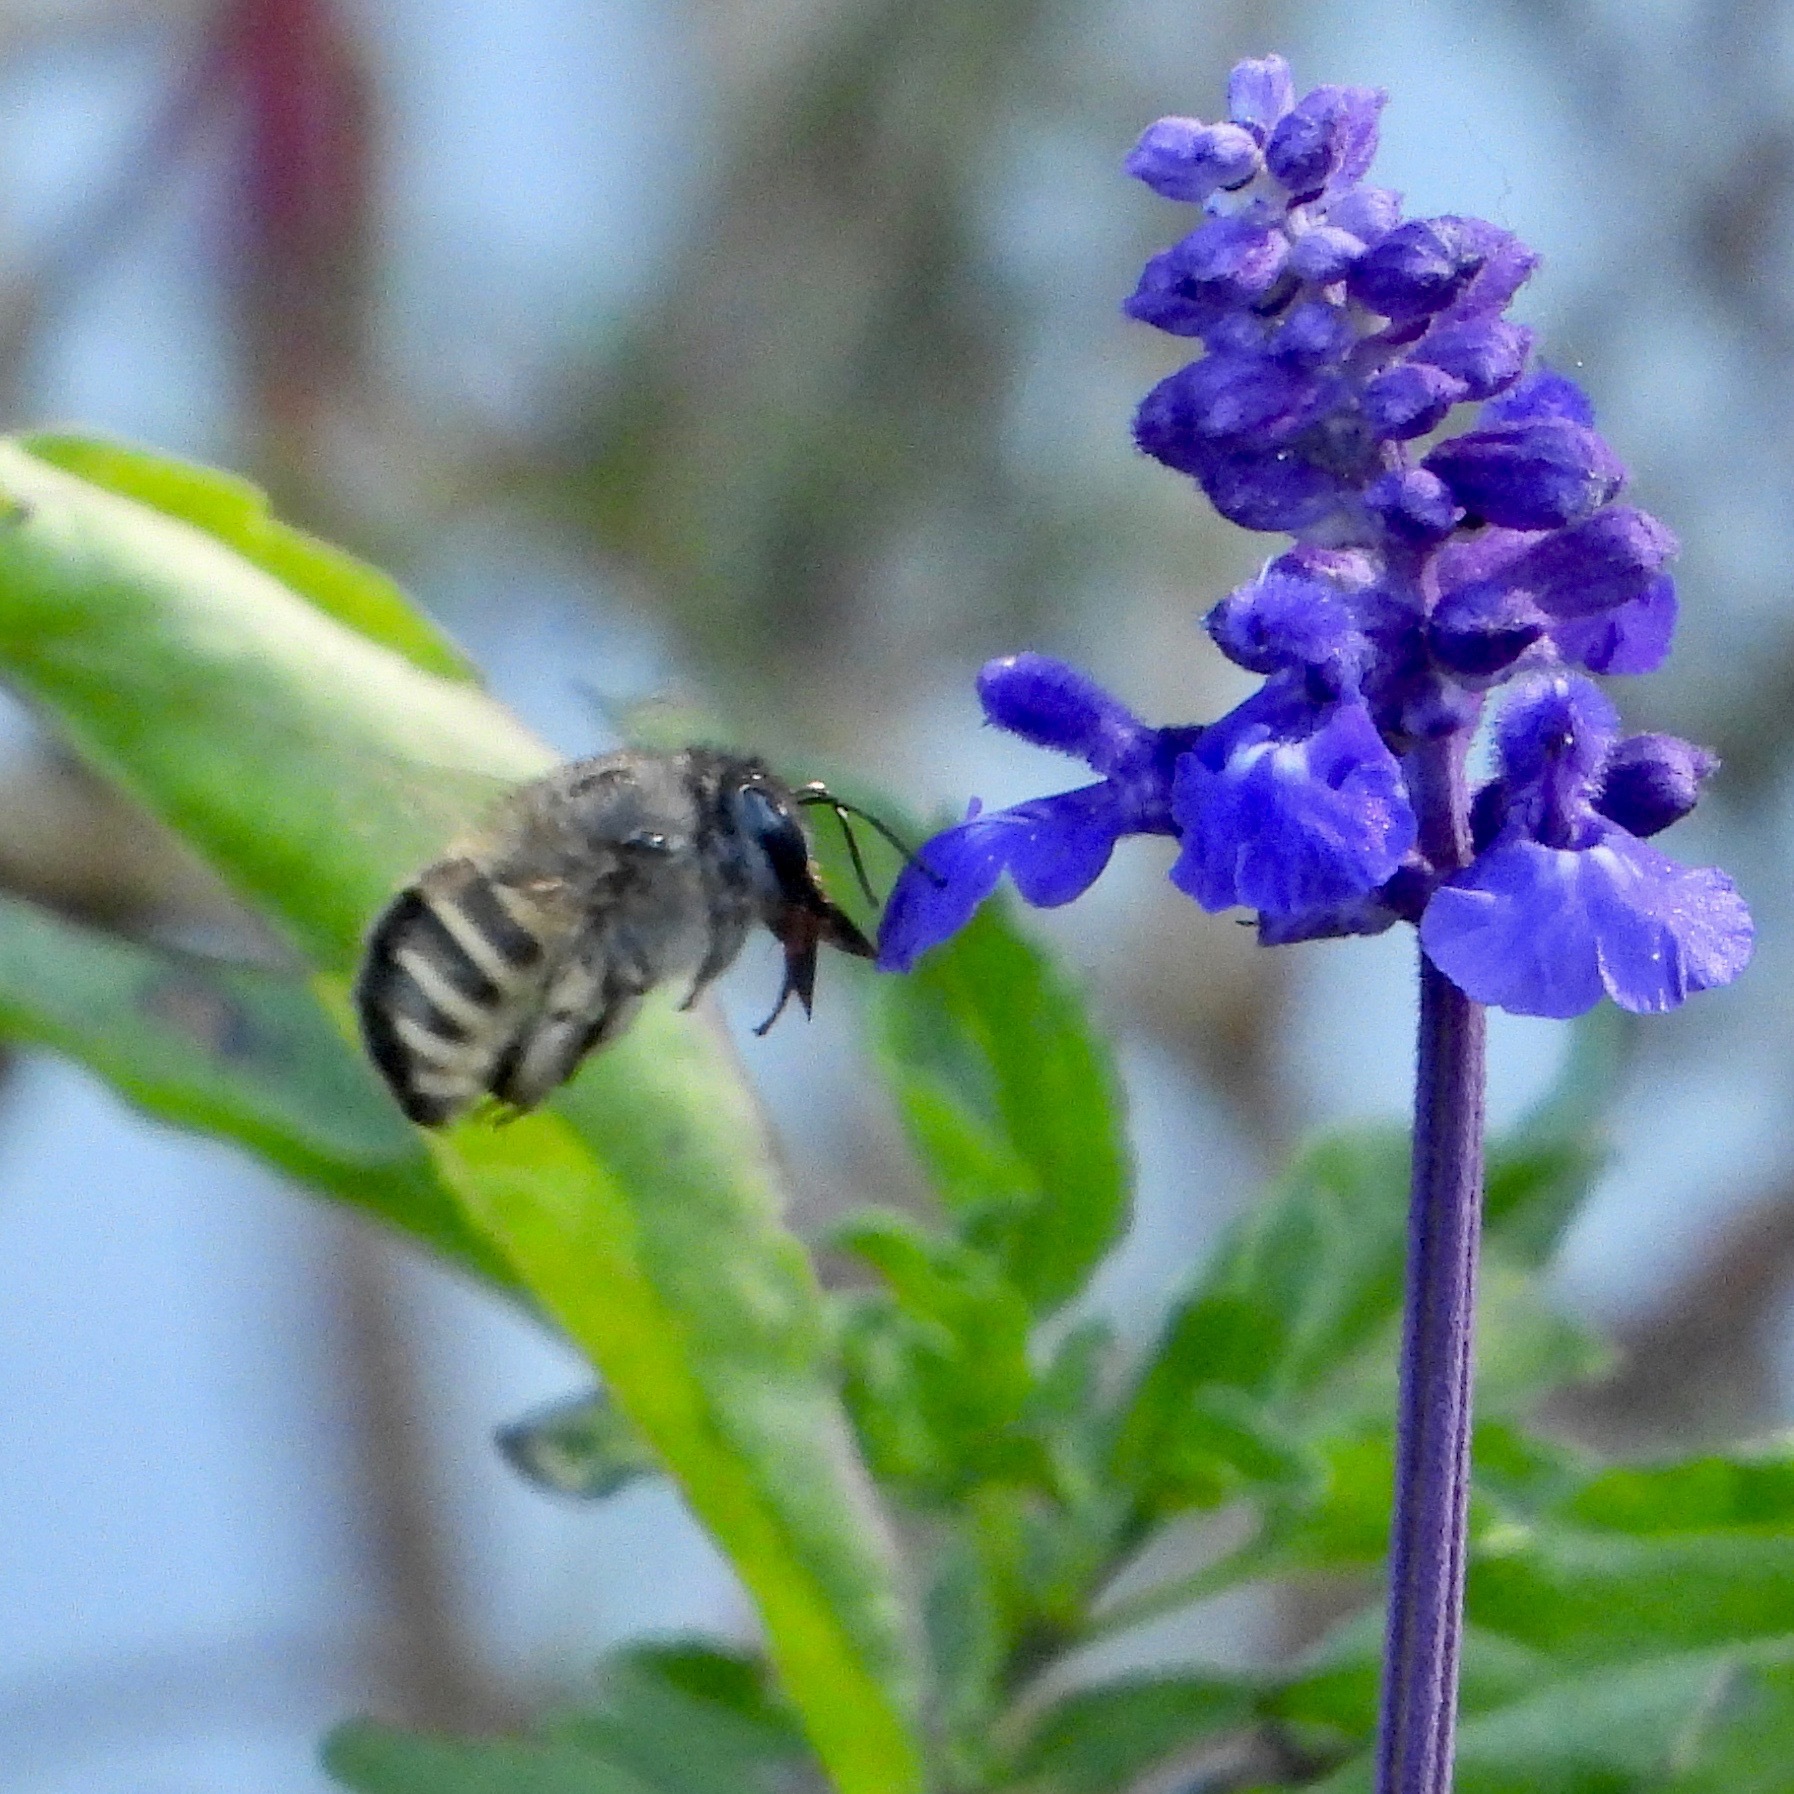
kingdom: Animalia
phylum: Arthropoda
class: Insecta
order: Hymenoptera
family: Apidae
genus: Xylocopa
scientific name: Xylocopa tabaniformis
